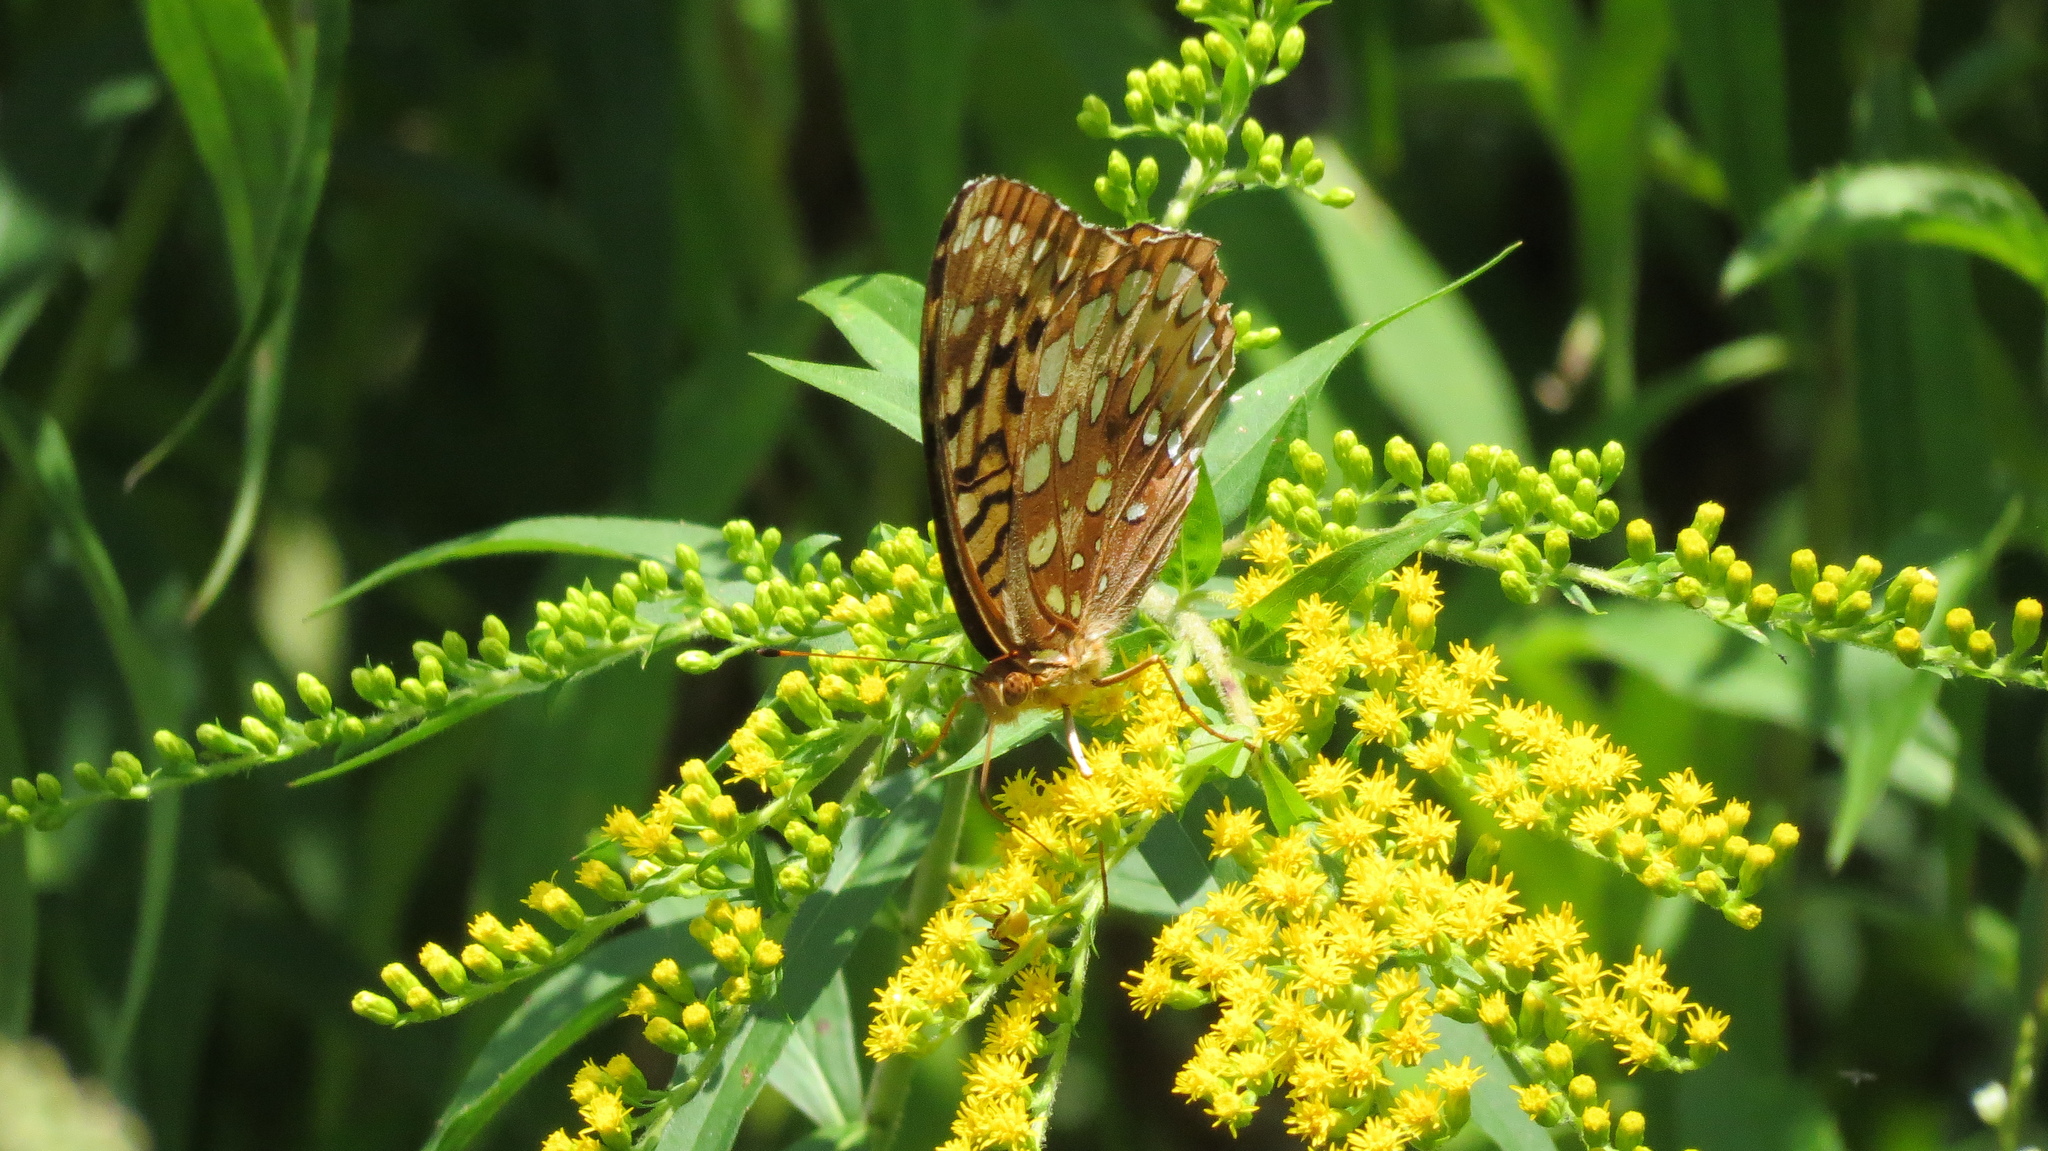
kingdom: Animalia
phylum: Arthropoda
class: Insecta
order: Lepidoptera
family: Nymphalidae
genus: Speyeria
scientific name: Speyeria cybele
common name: Great spangled fritillary
